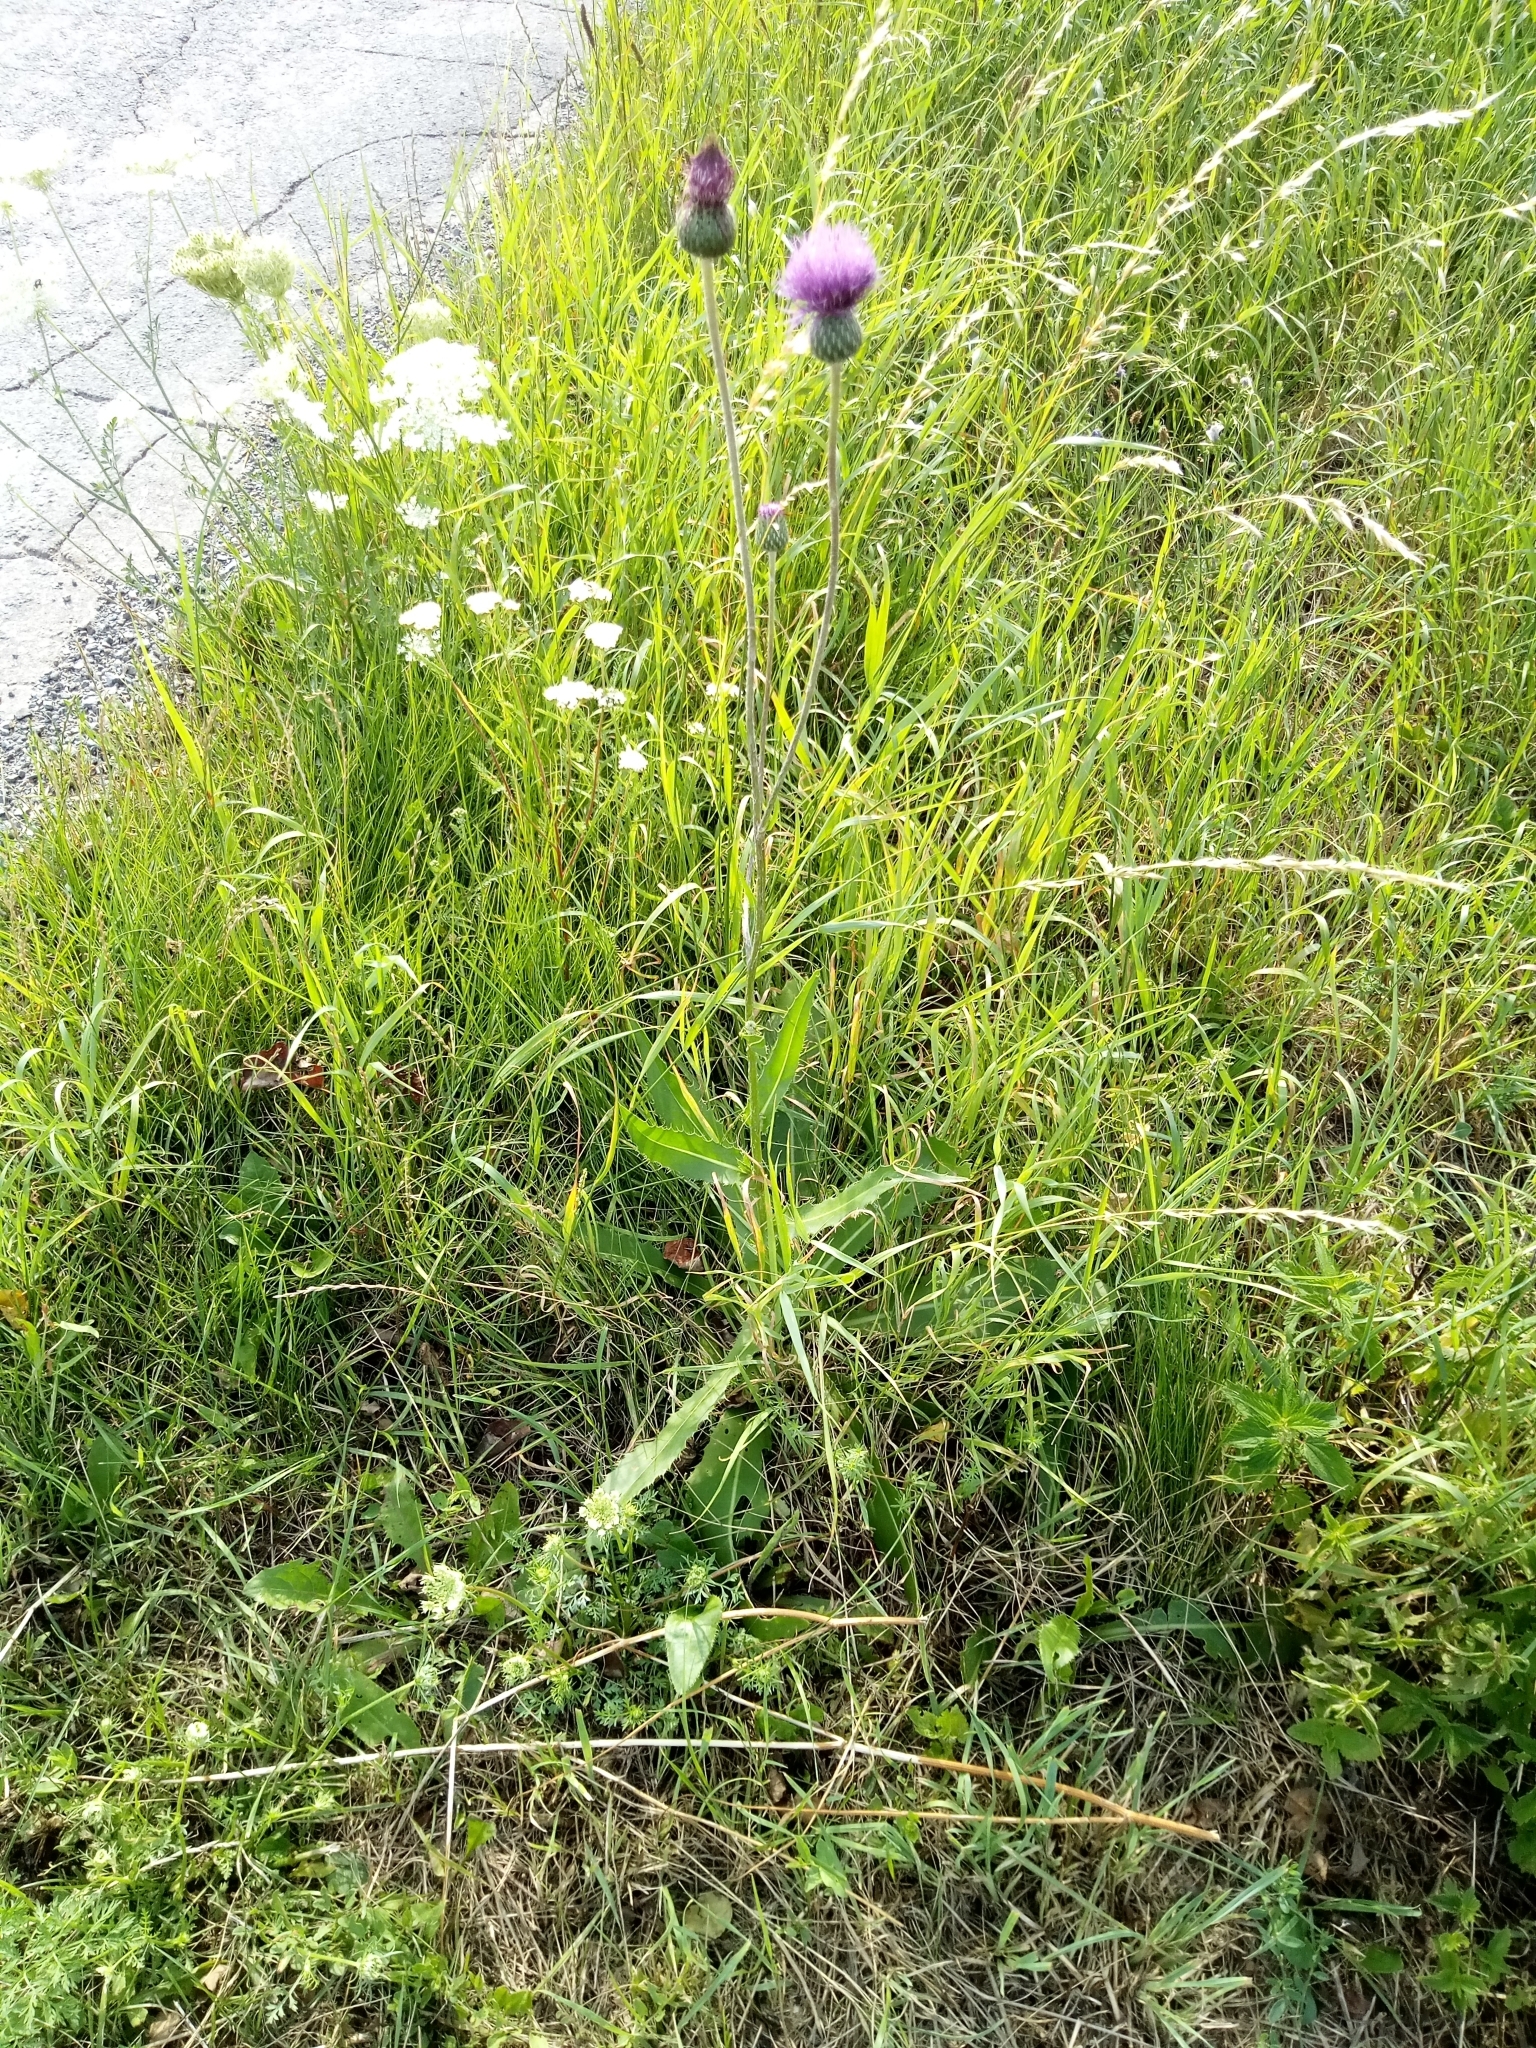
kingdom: Plantae
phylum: Tracheophyta
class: Magnoliopsida
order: Asterales
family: Asteraceae
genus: Cirsium
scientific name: Cirsium canum
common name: Queen anne's thistle
